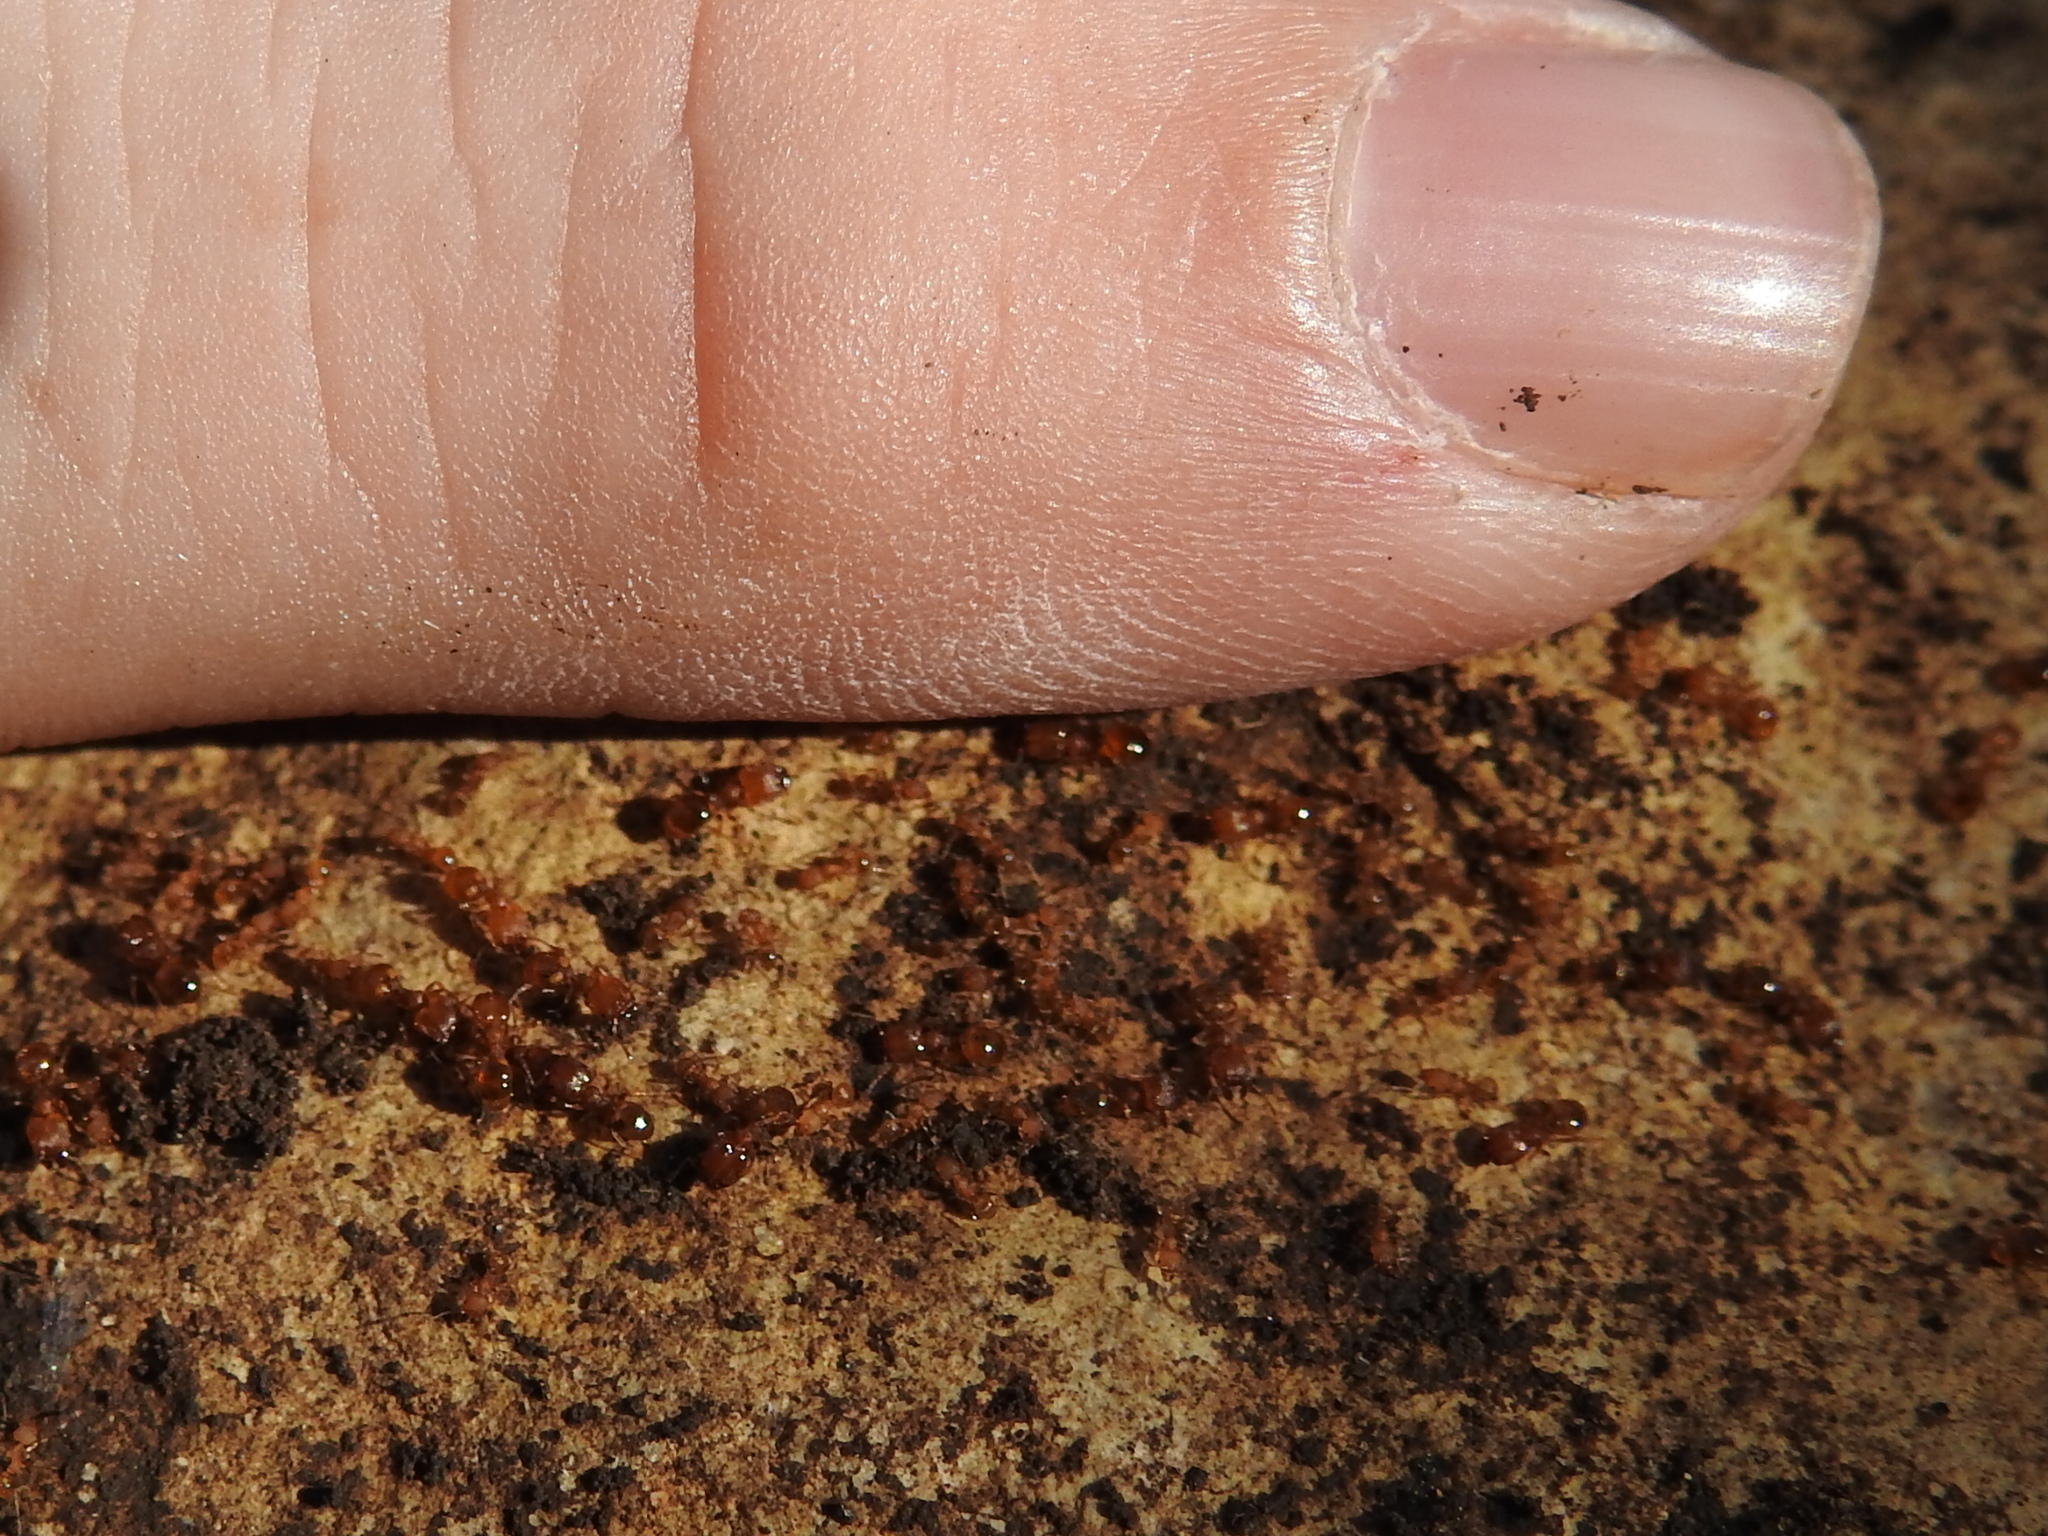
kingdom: Animalia
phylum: Arthropoda
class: Insecta
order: Hymenoptera
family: Formicidae
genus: Pheidole
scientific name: Pheidole bilimeki
